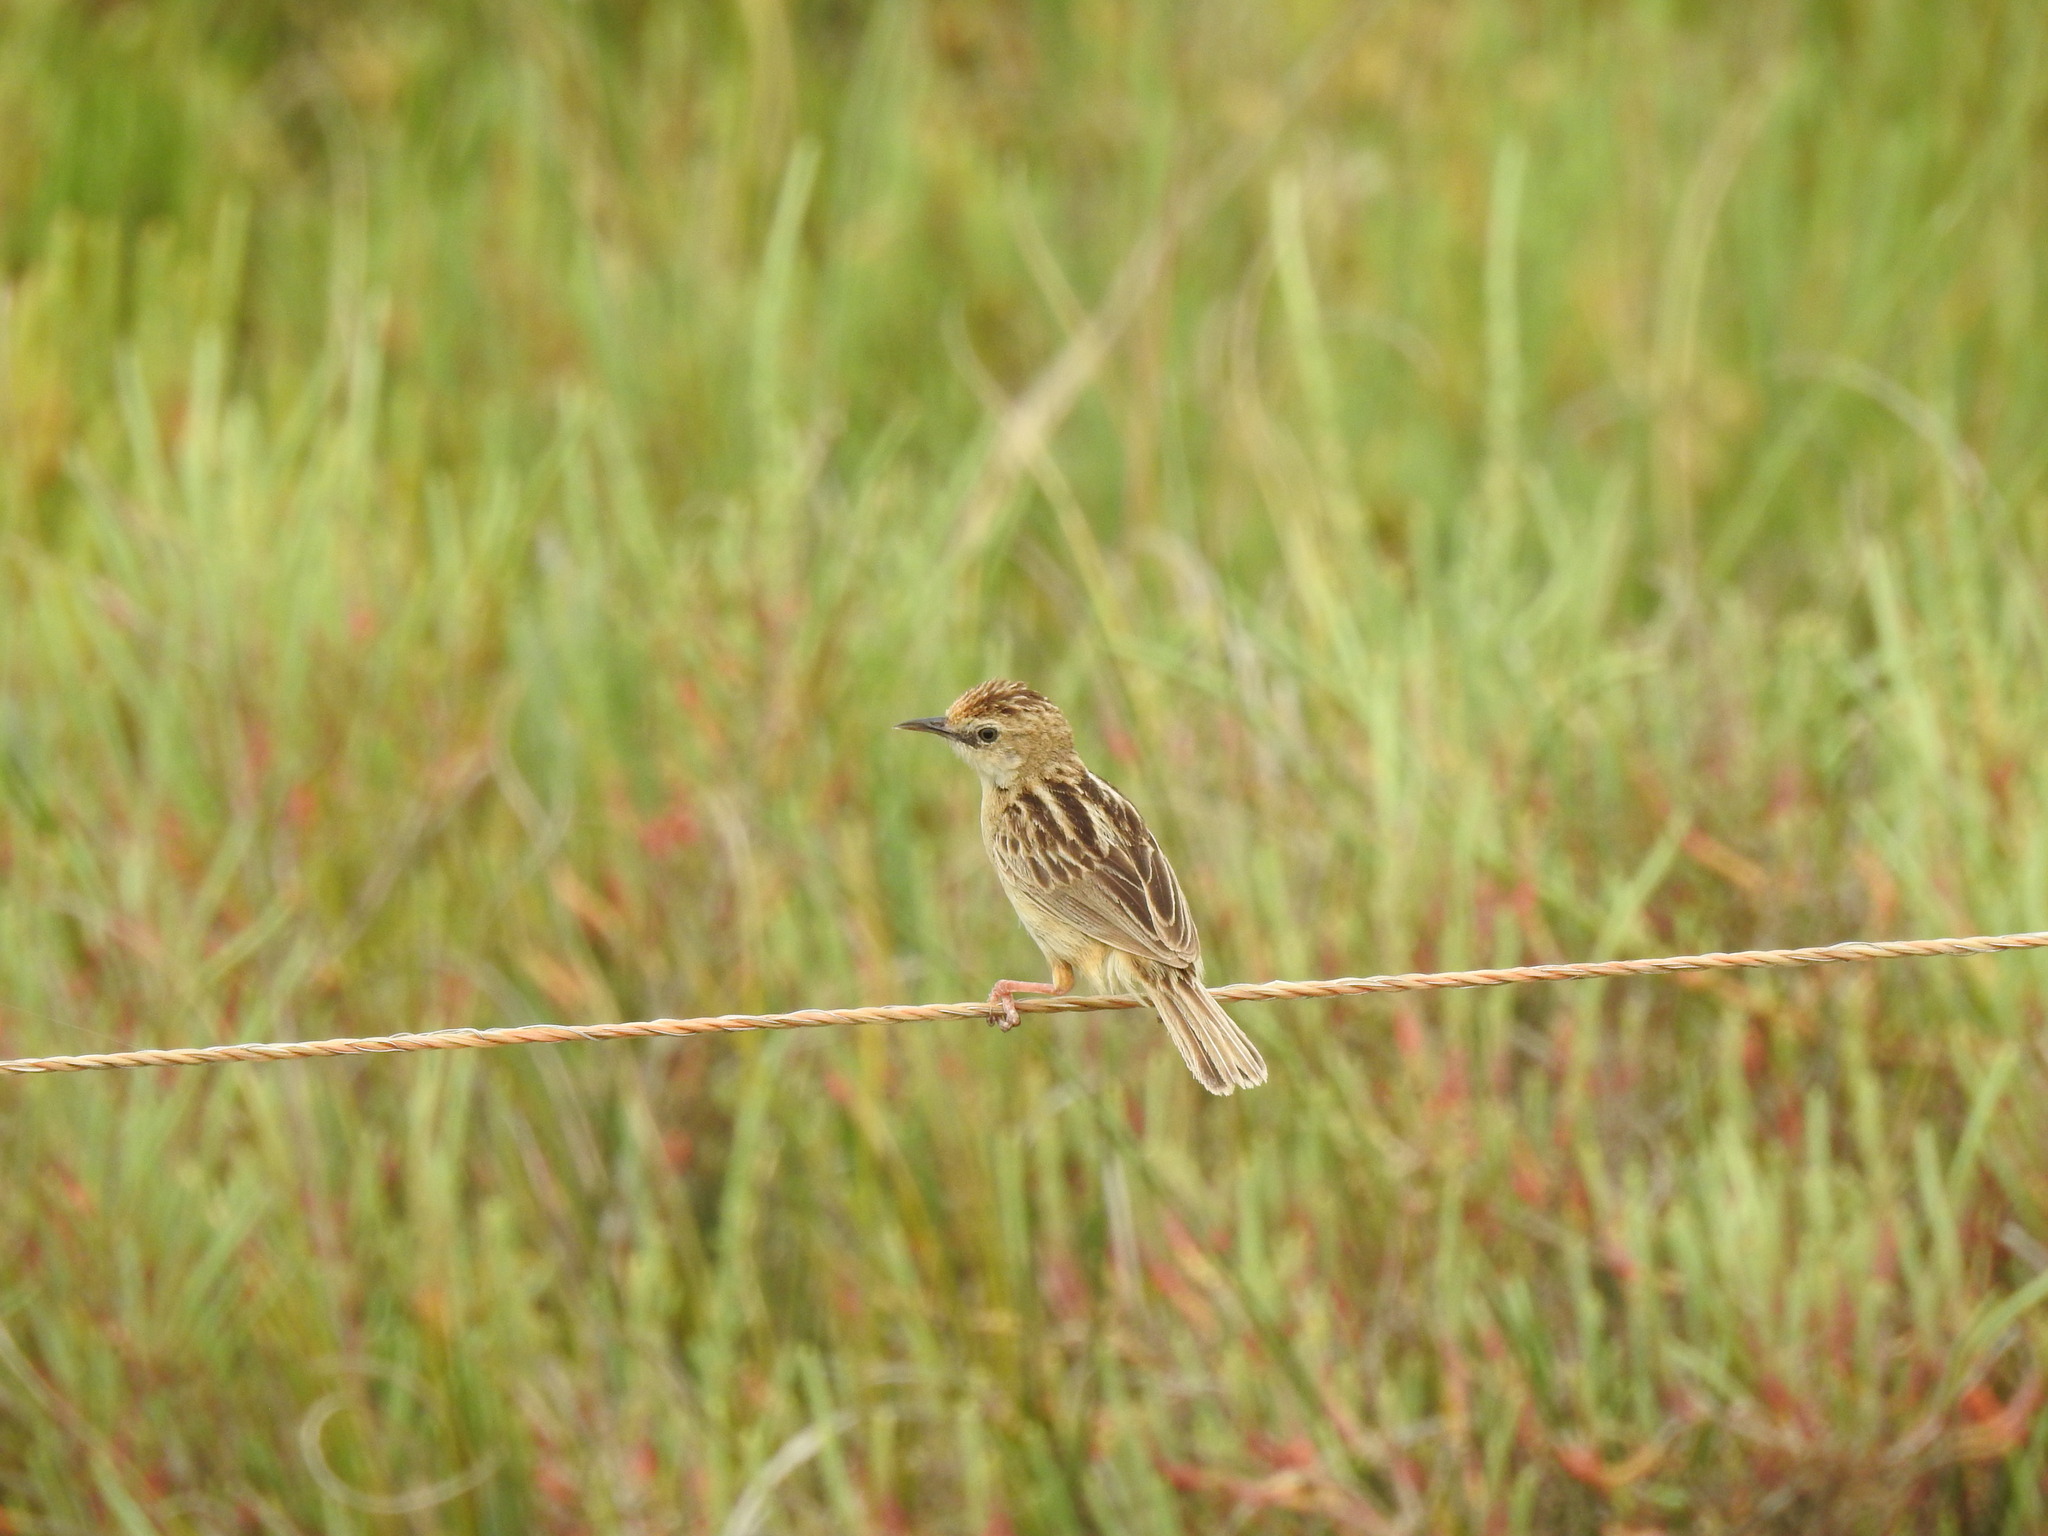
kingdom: Animalia
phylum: Chordata
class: Aves
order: Passeriformes
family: Cisticolidae
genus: Cisticola
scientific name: Cisticola juncidis
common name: Zitting cisticola
